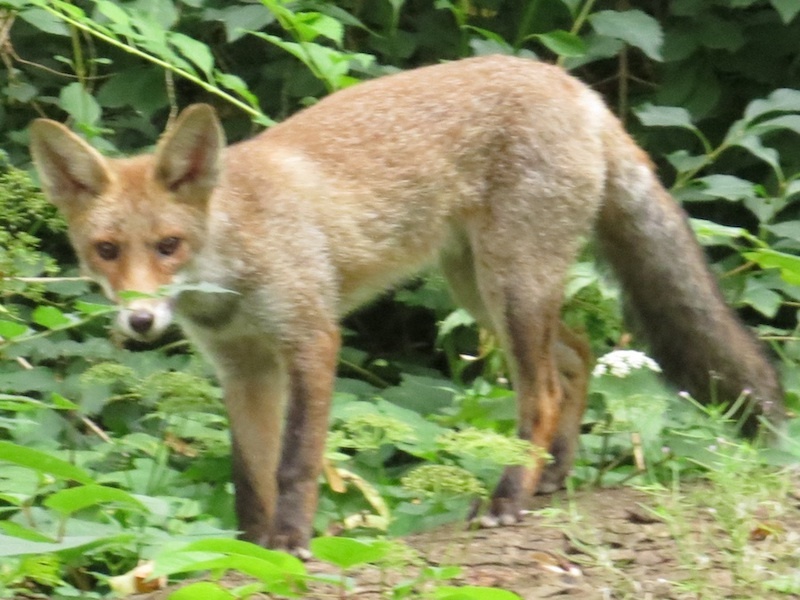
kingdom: Animalia
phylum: Chordata
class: Mammalia
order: Carnivora
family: Canidae
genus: Vulpes
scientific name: Vulpes vulpes
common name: Red fox
